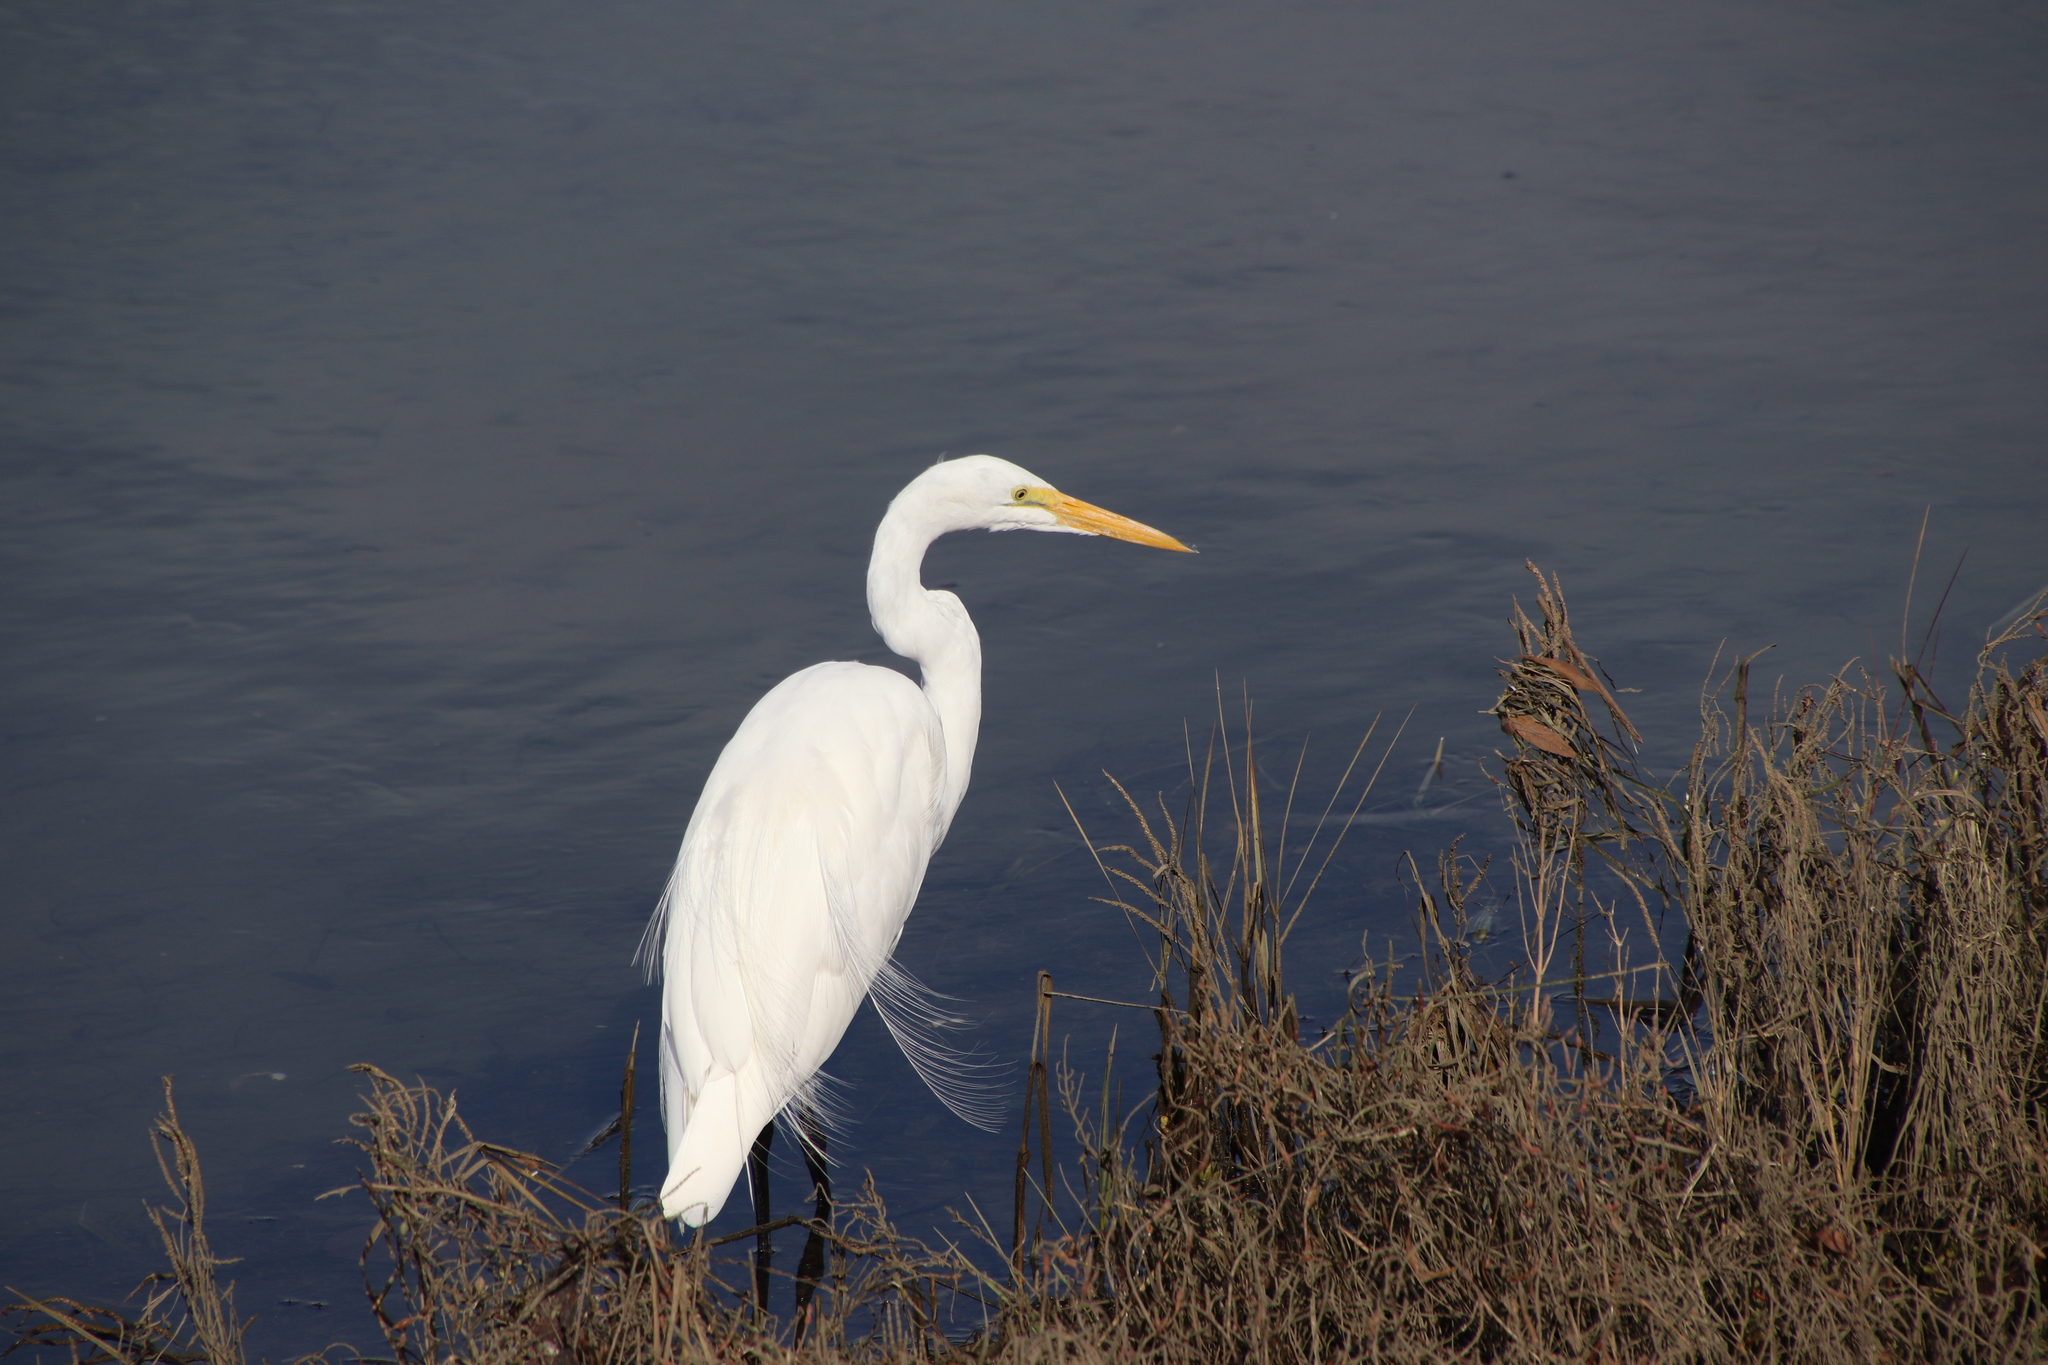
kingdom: Animalia
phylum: Chordata
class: Aves
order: Pelecaniformes
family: Ardeidae
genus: Ardea
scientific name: Ardea alba
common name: Great egret
